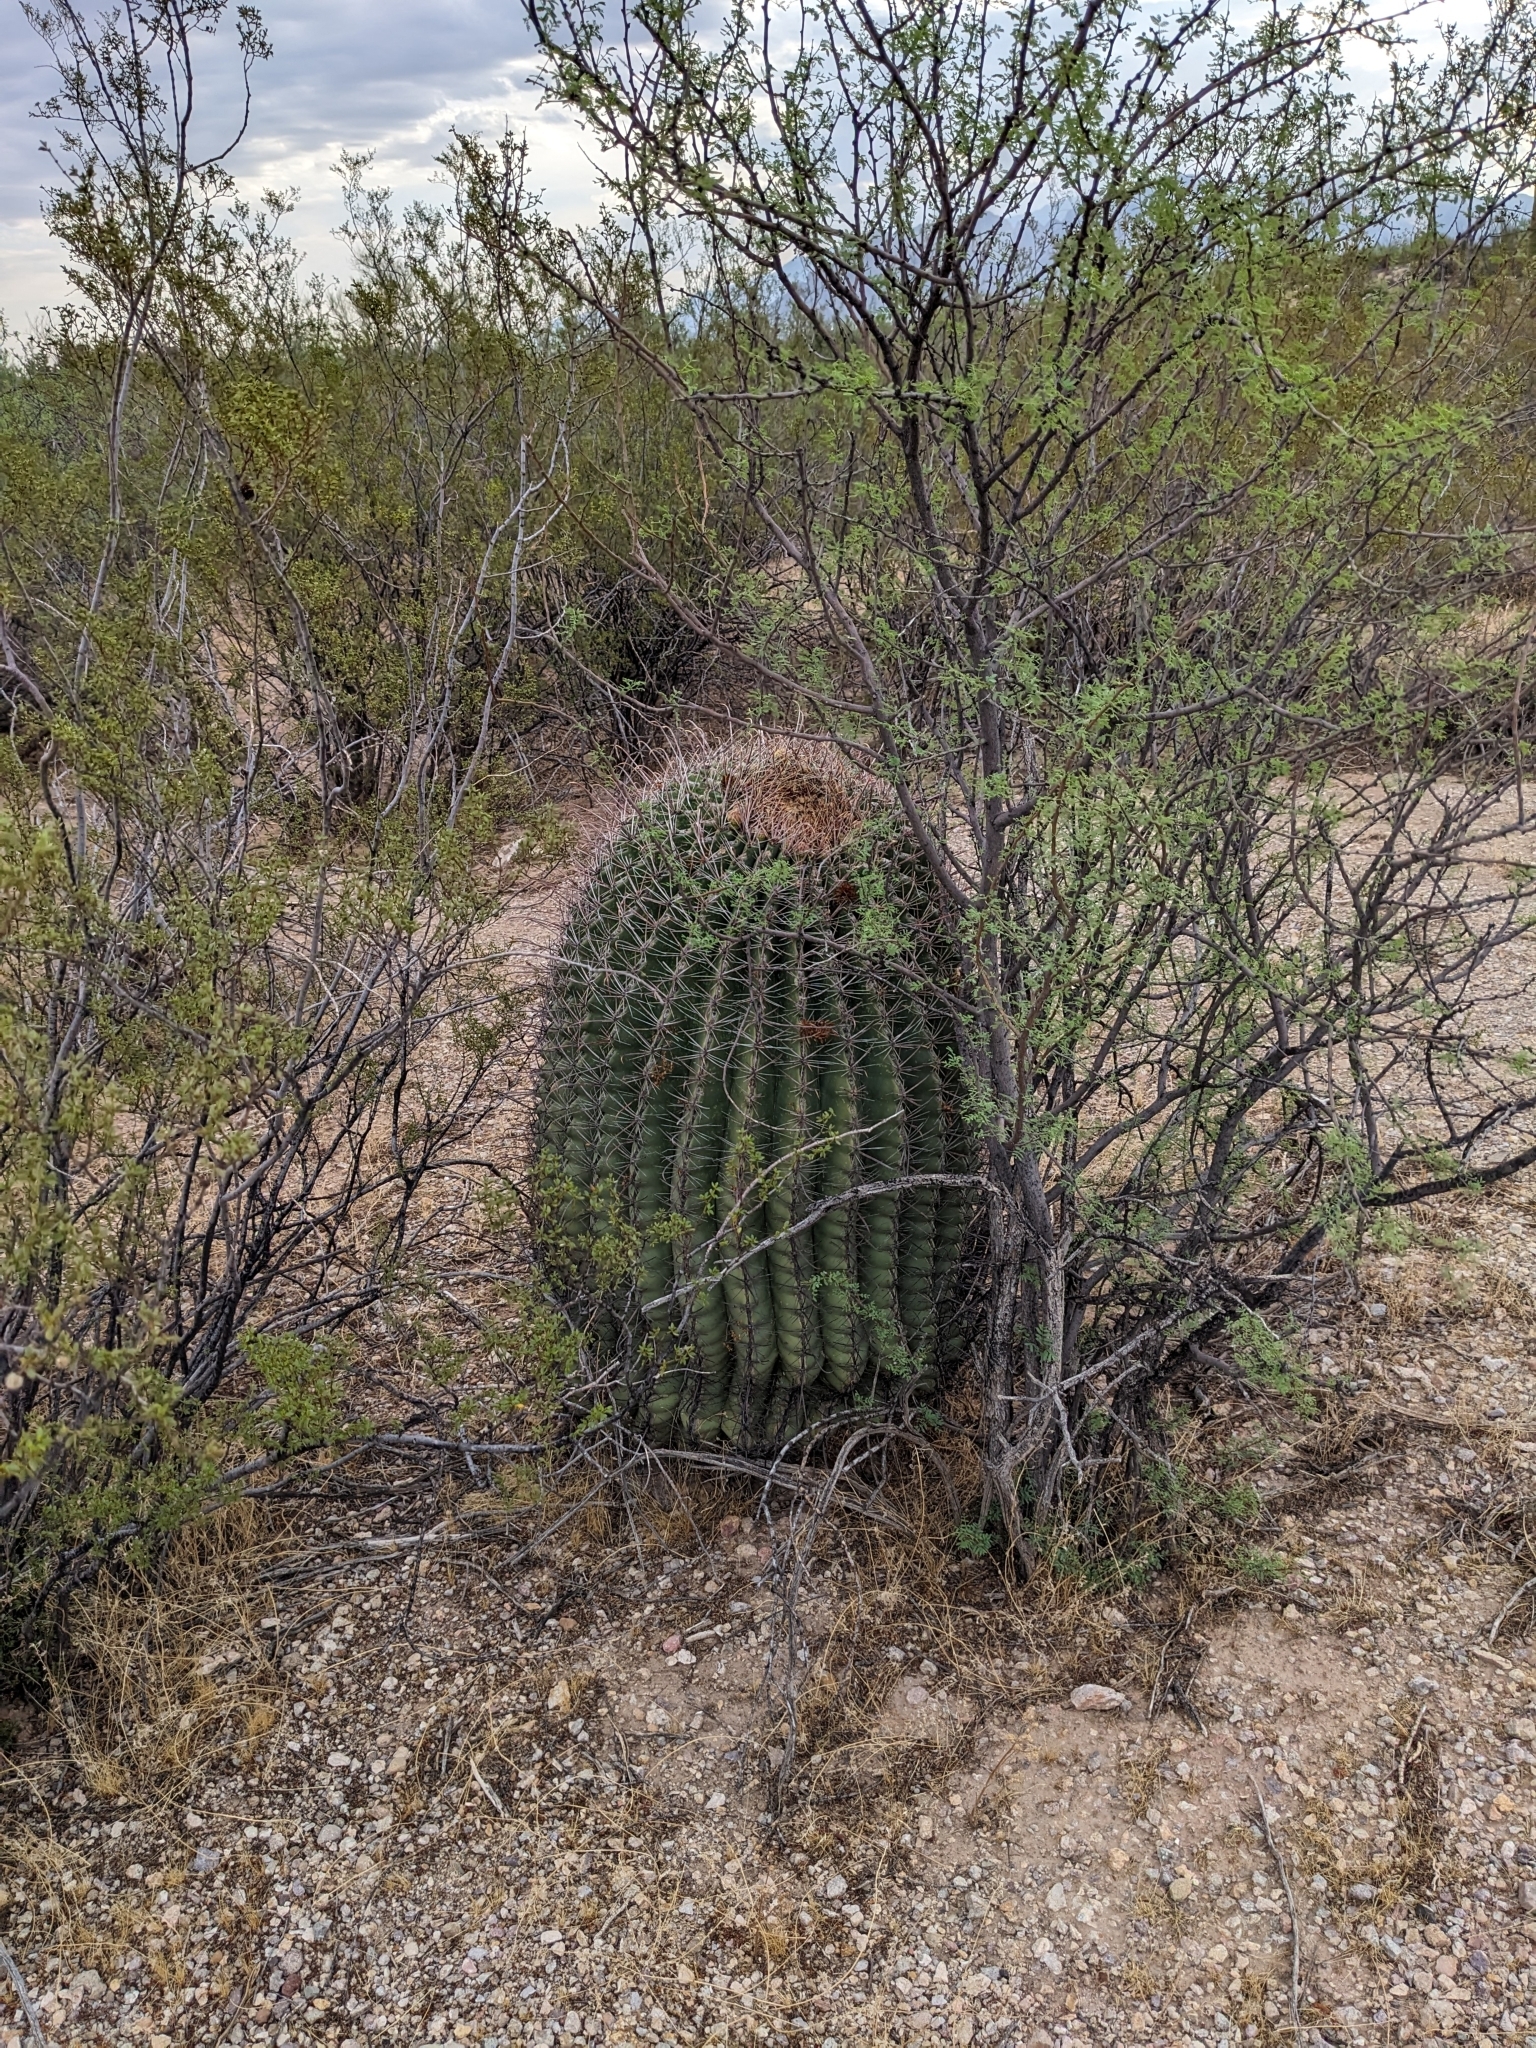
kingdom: Plantae
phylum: Tracheophyta
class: Magnoliopsida
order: Caryophyllales
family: Cactaceae
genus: Ferocactus
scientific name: Ferocactus wislizeni
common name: Candy barrel cactus
